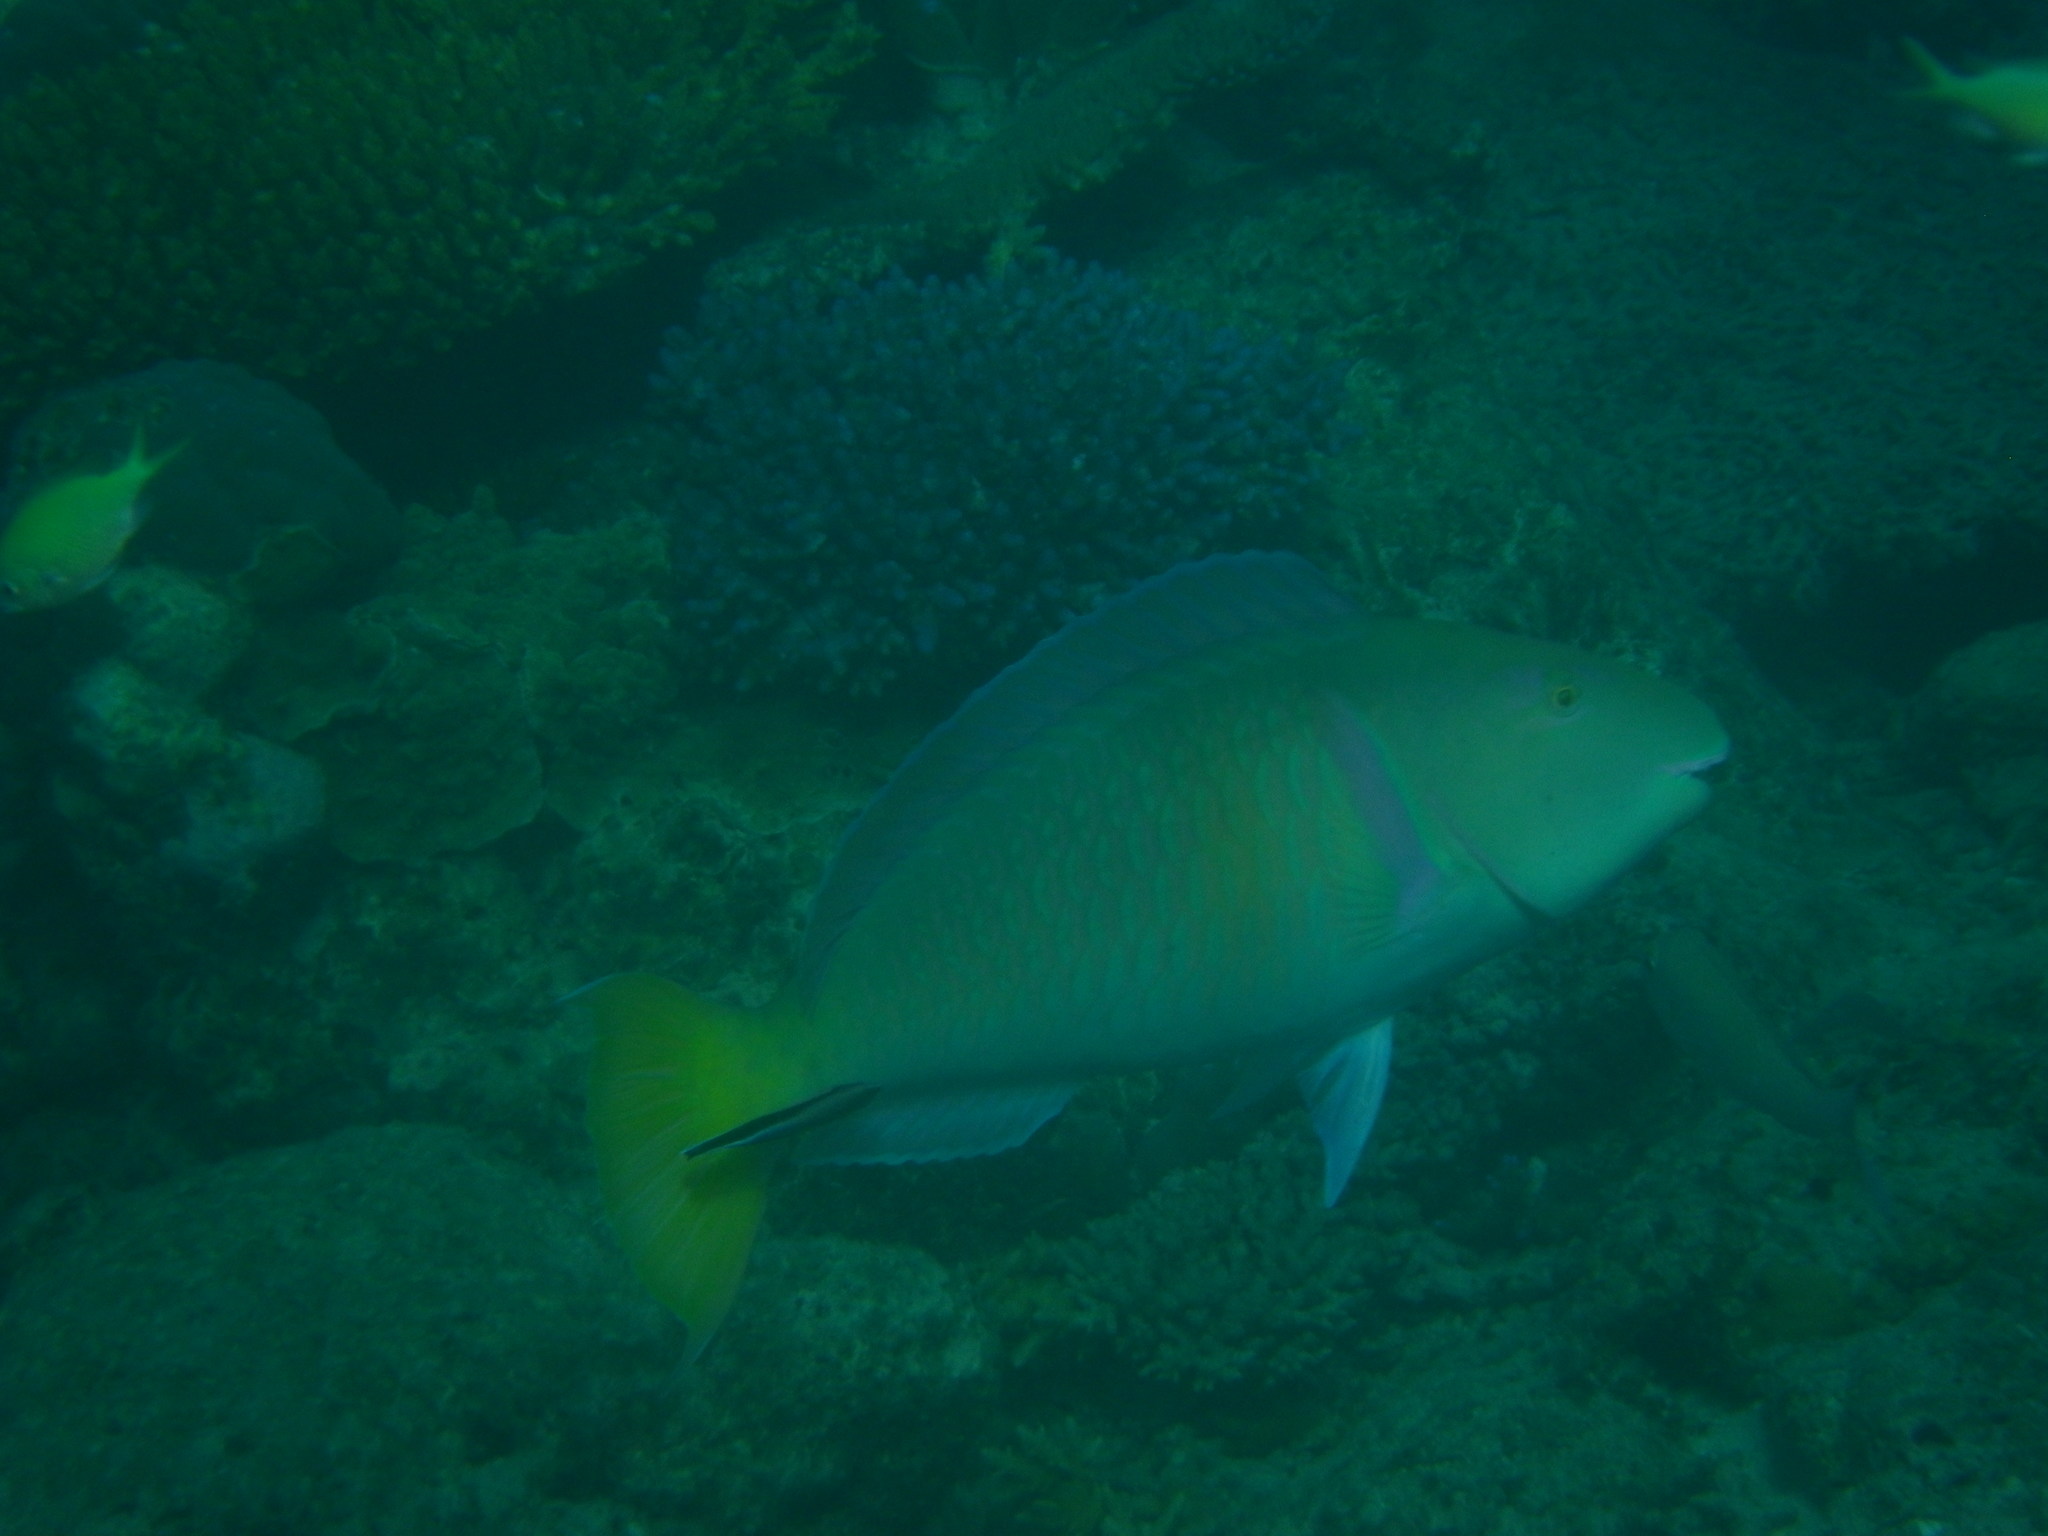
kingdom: Animalia
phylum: Chordata
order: Perciformes
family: Scaridae
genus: Hipposcarus
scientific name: Hipposcarus longiceps
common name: Pacific longnose parrotfish
